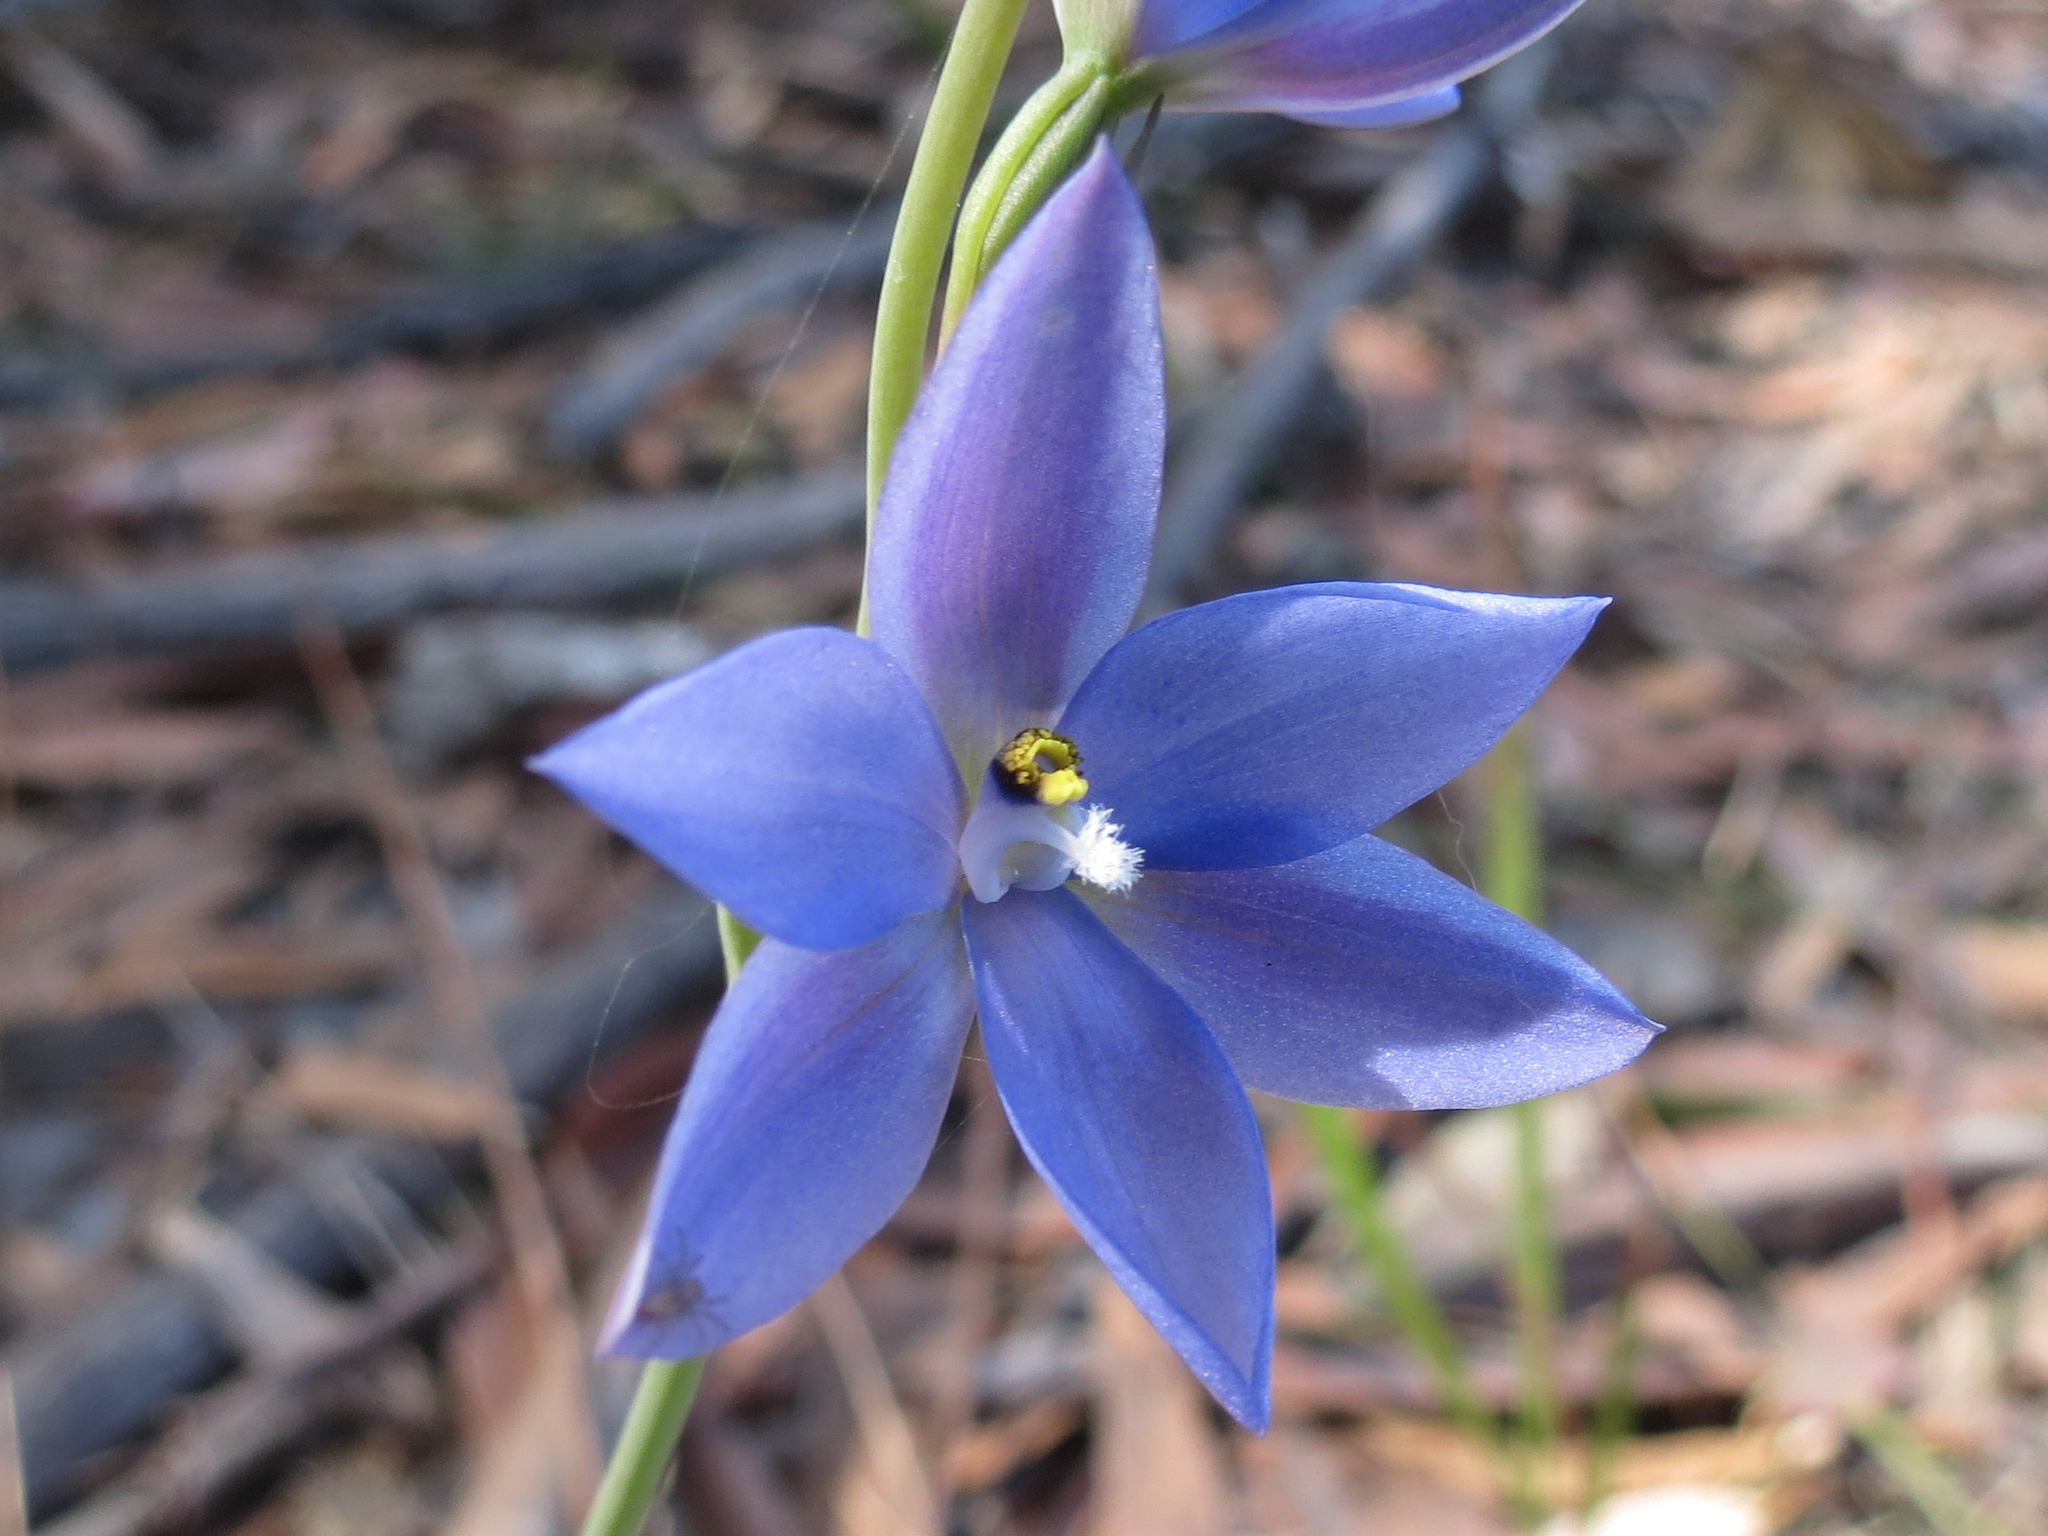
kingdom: Plantae
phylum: Tracheophyta
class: Liliopsida
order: Asparagales
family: Orchidaceae
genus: Thelymitra
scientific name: Thelymitra ixioides
